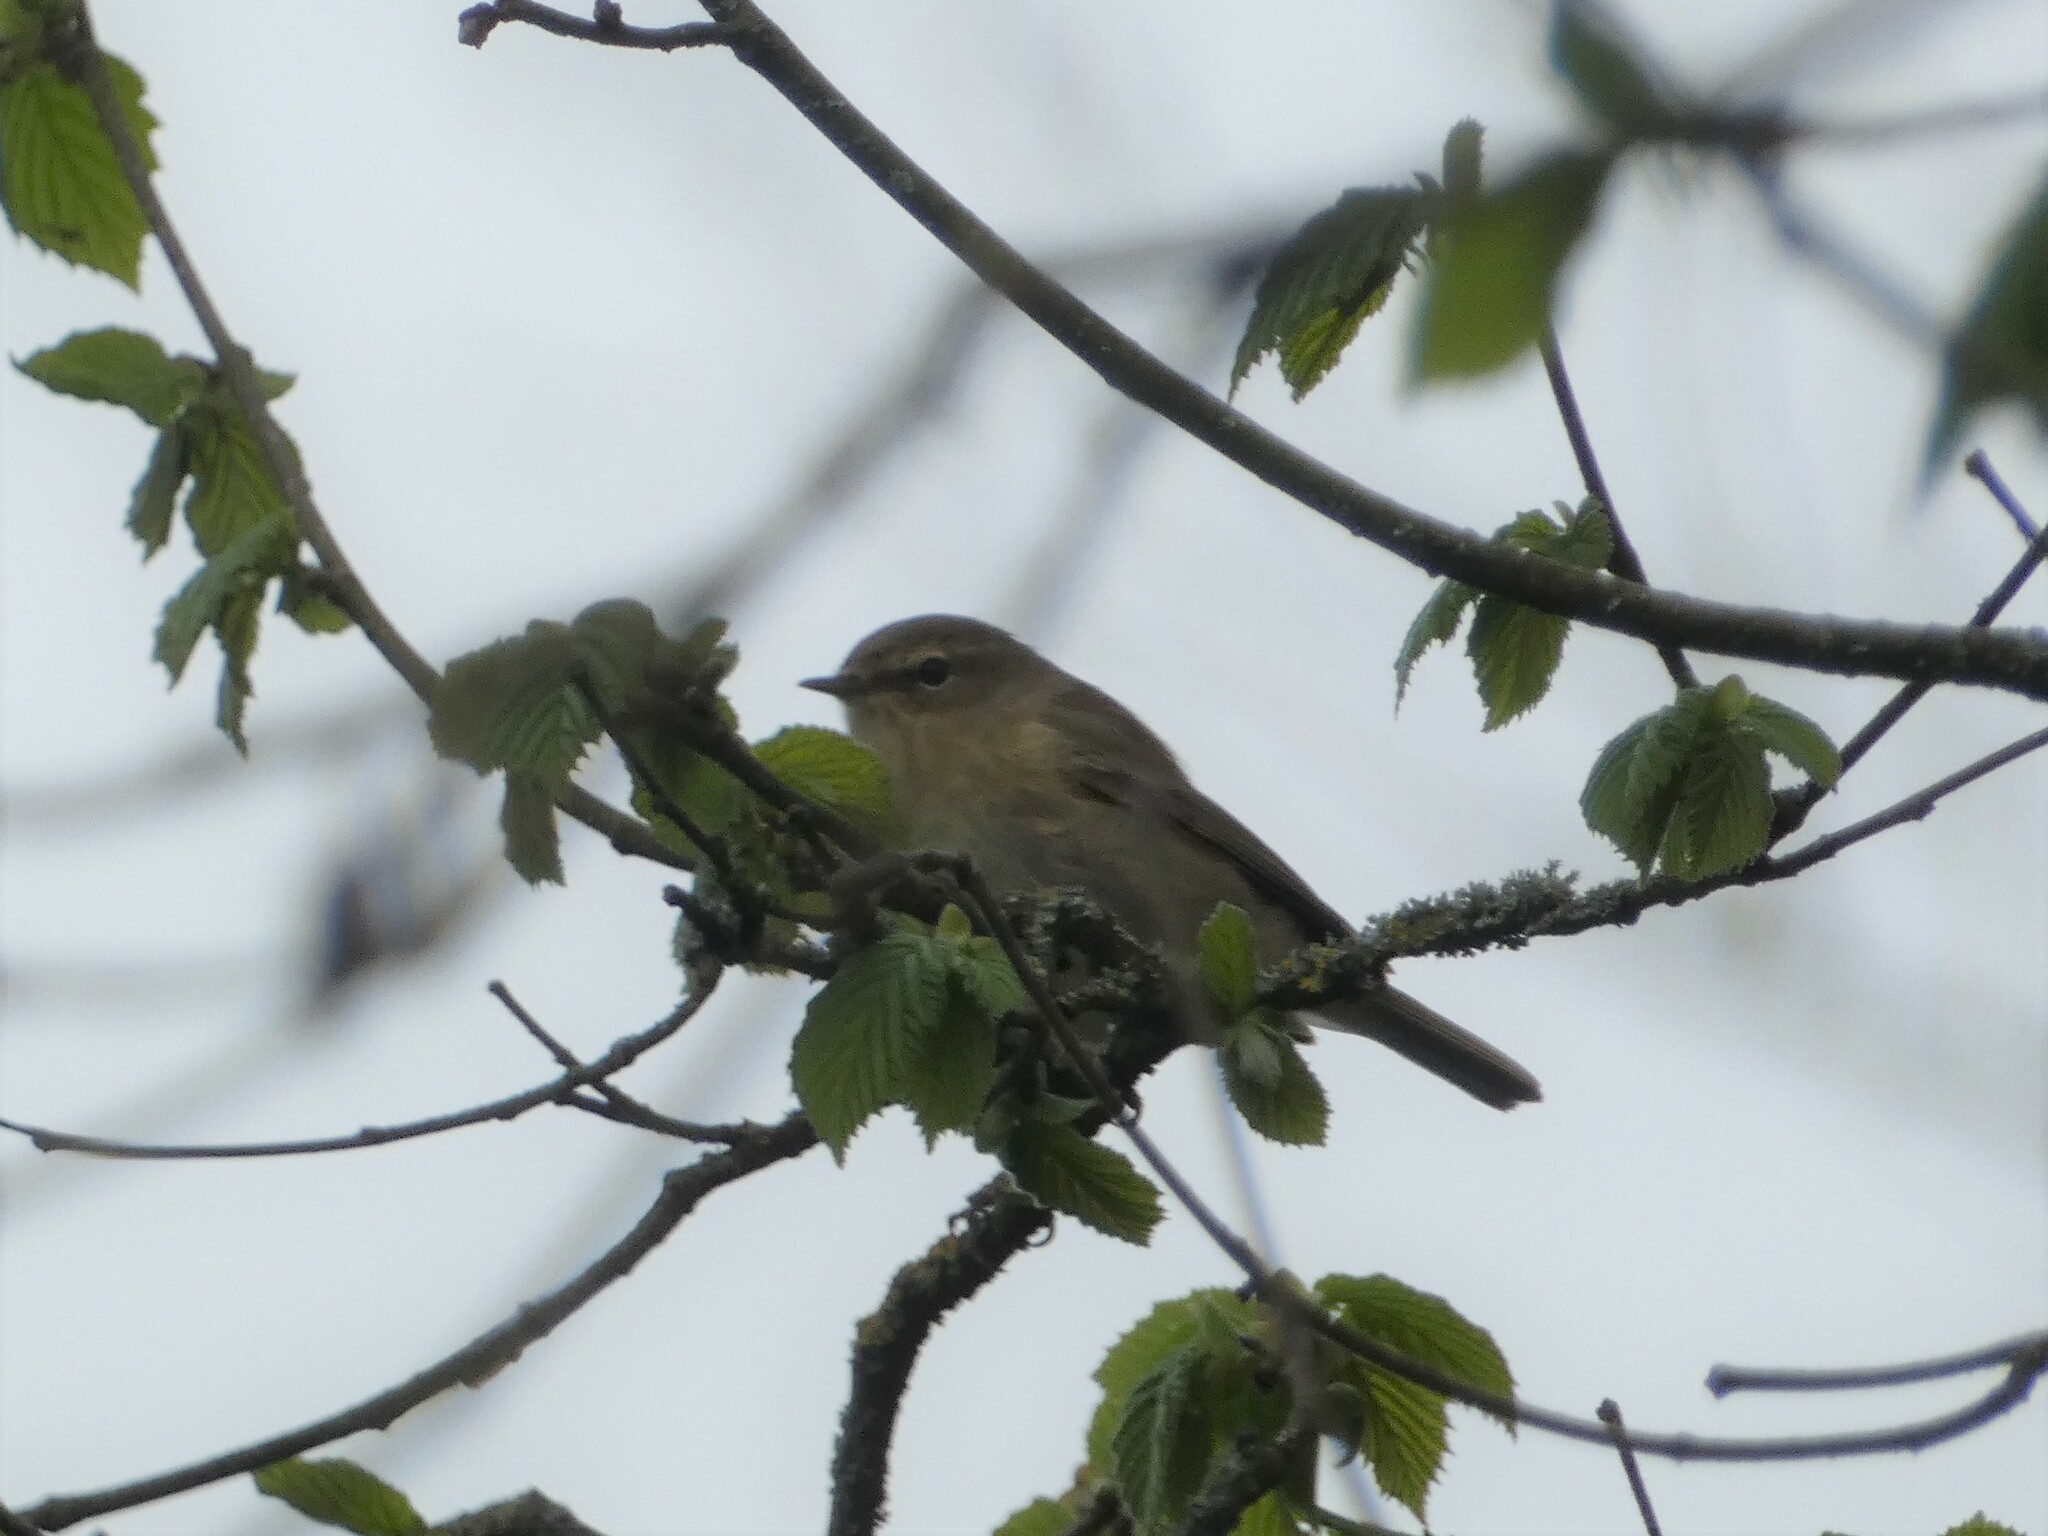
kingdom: Animalia
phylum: Chordata
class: Aves
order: Passeriformes
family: Phylloscopidae
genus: Phylloscopus
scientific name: Phylloscopus collybita
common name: Common chiffchaff
